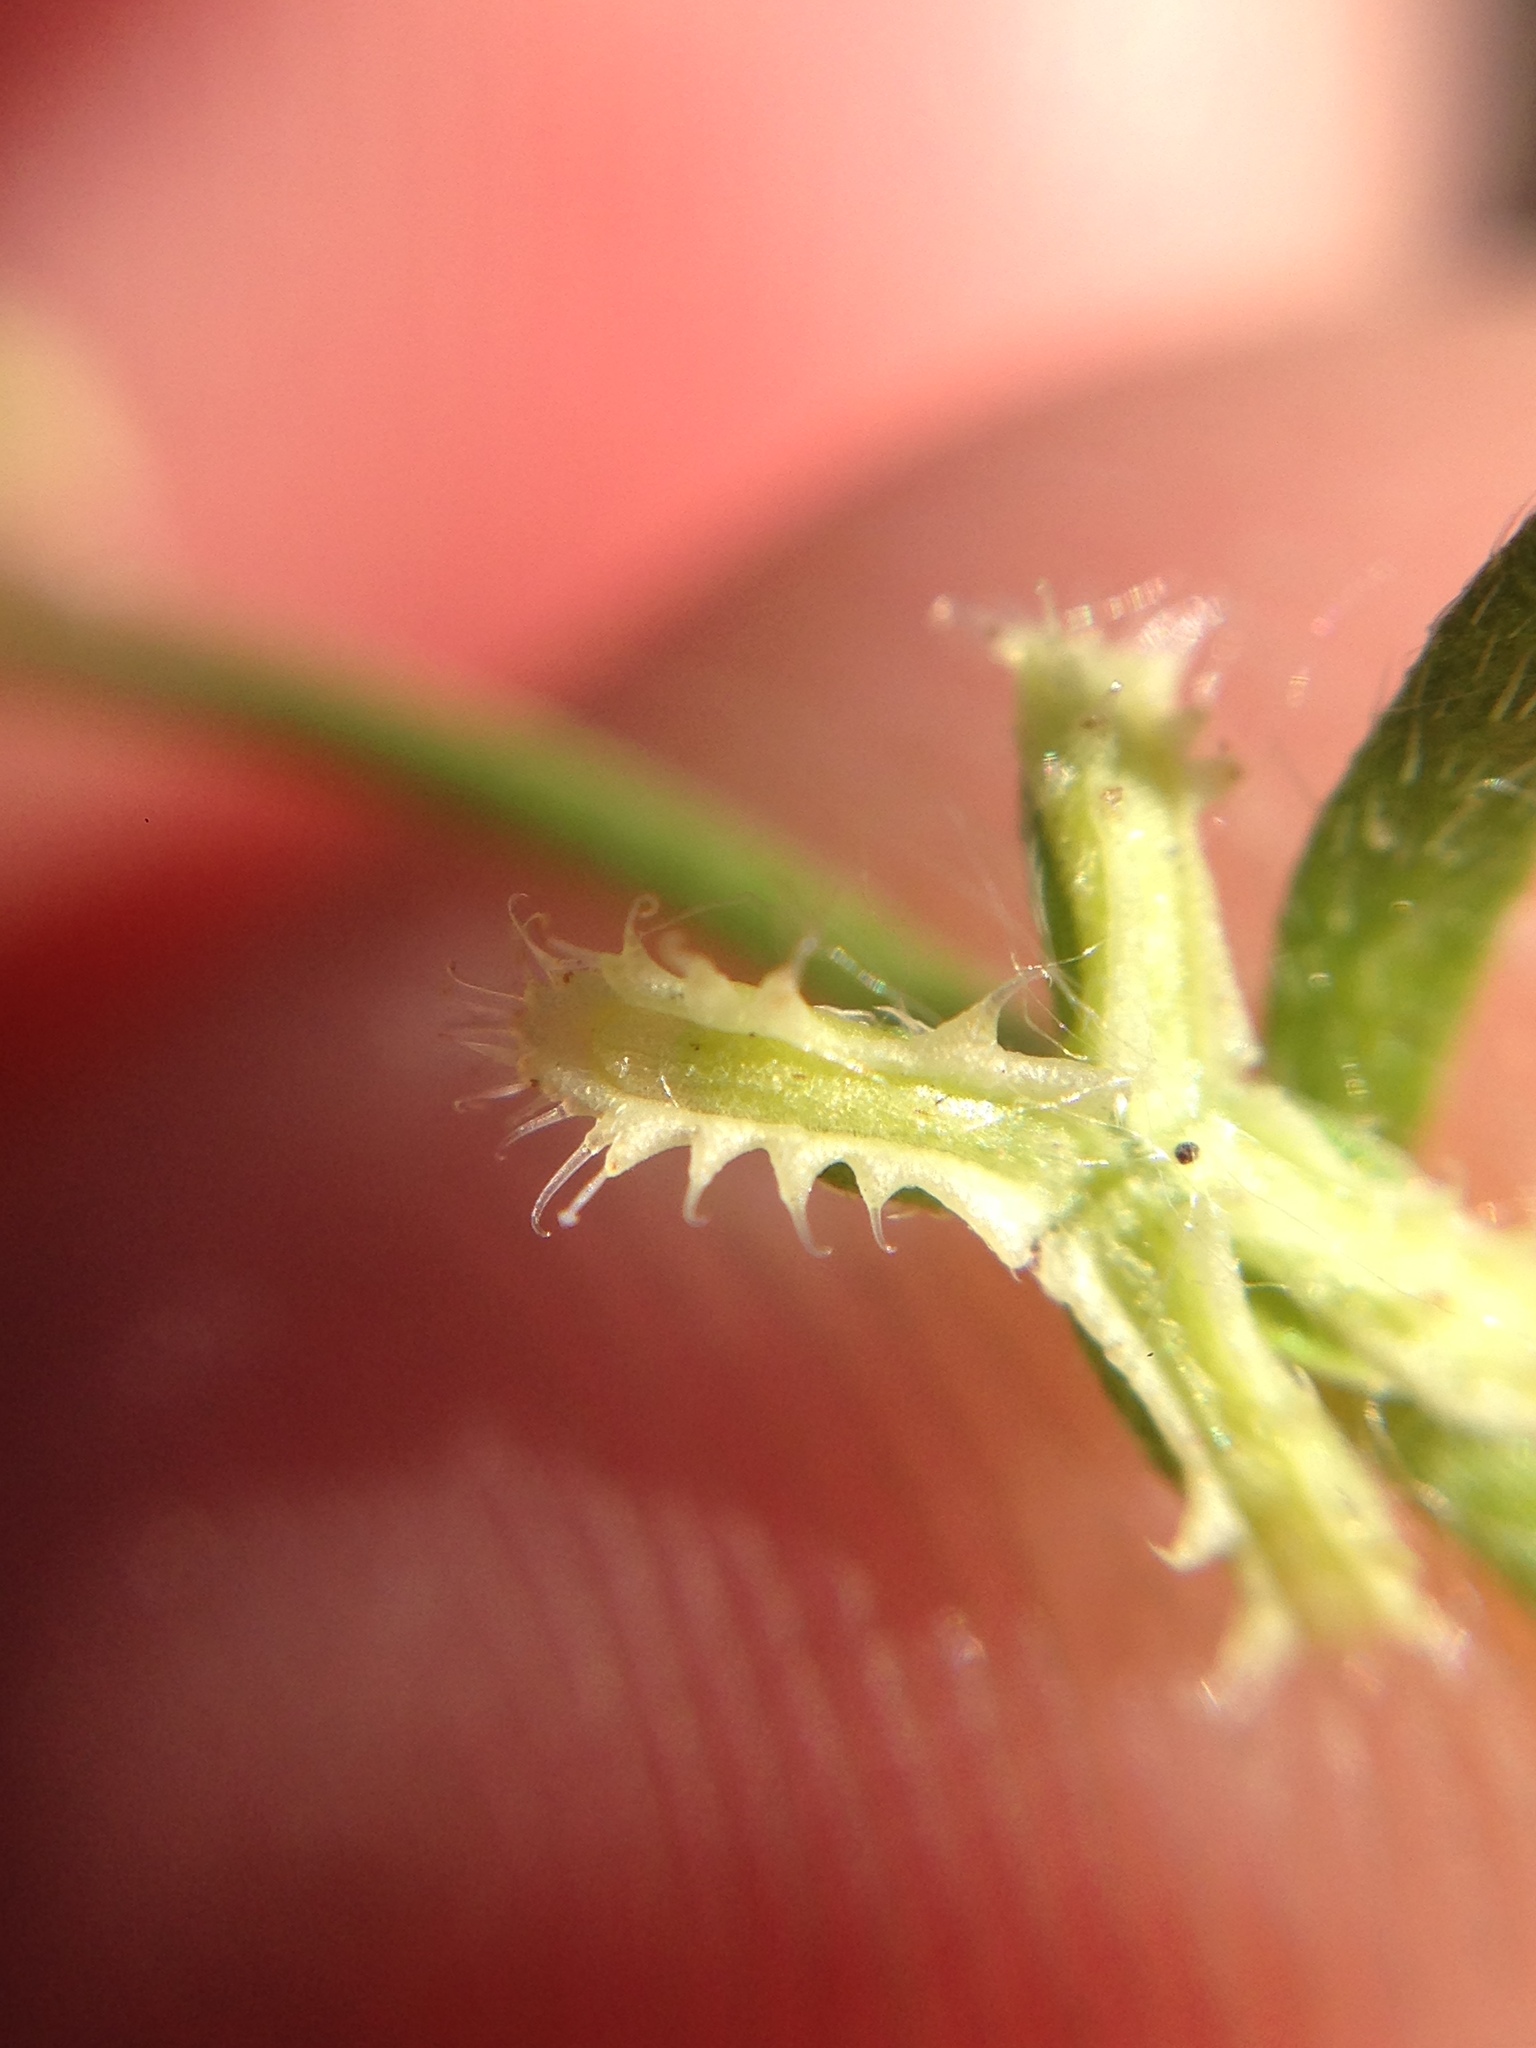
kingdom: Plantae
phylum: Tracheophyta
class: Magnoliopsida
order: Boraginales
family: Boraginaceae
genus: Pectocarya
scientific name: Pectocarya linearis
